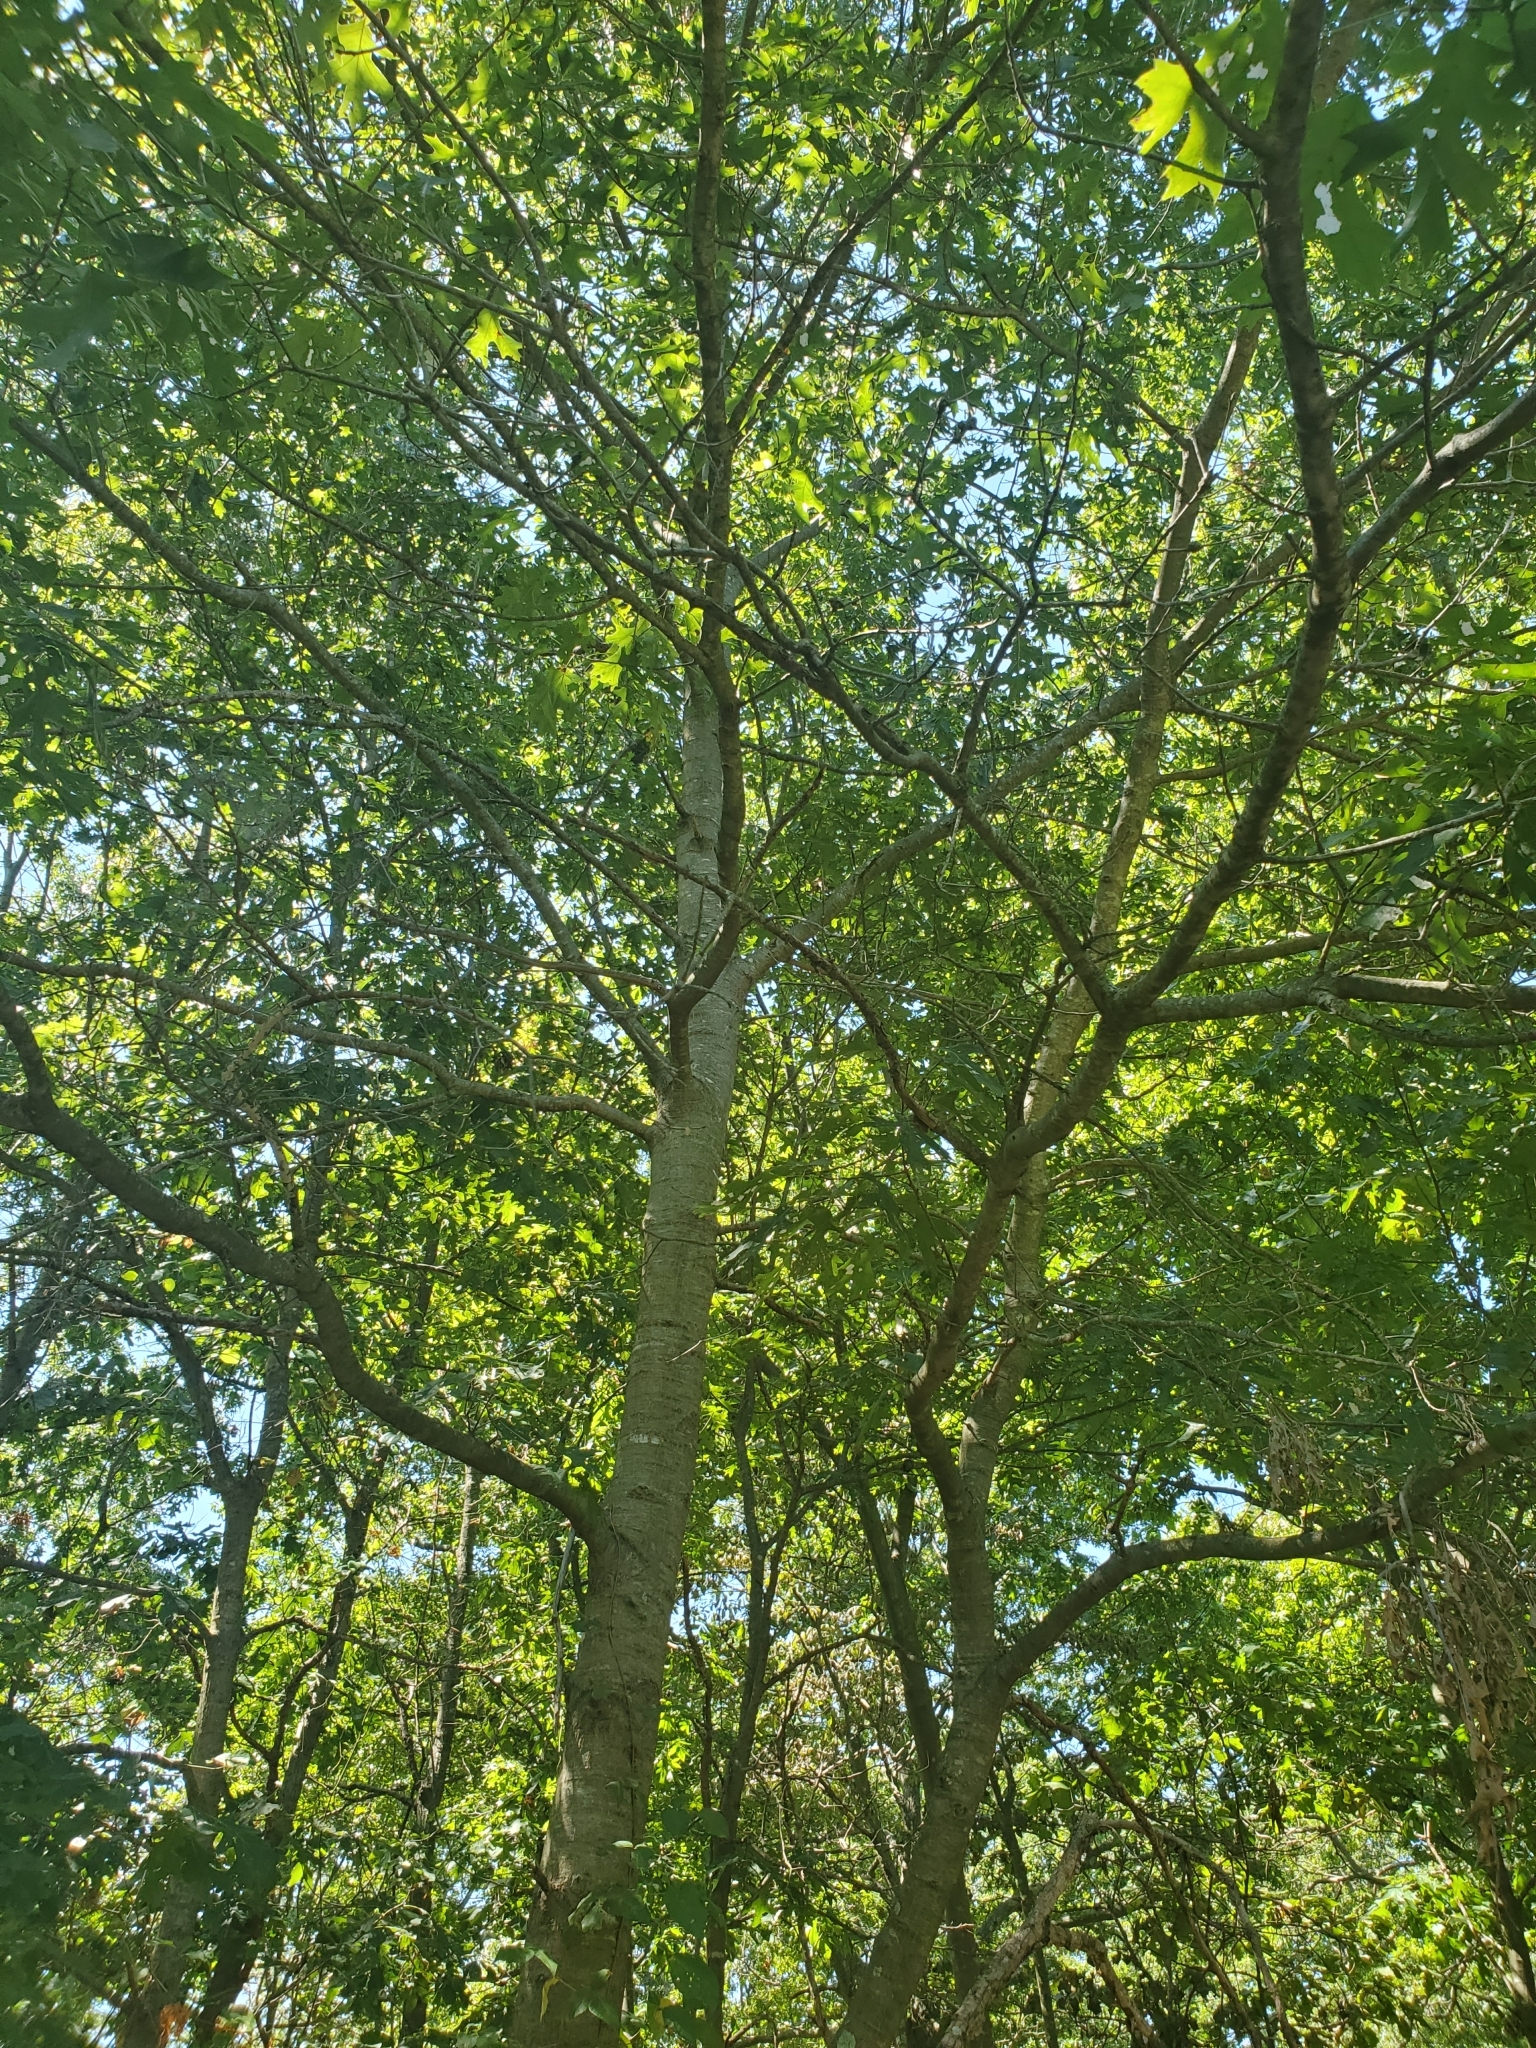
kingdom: Plantae
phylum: Tracheophyta
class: Magnoliopsida
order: Fagales
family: Fagaceae
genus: Quercus
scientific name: Quercus velutina
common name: Black oak
